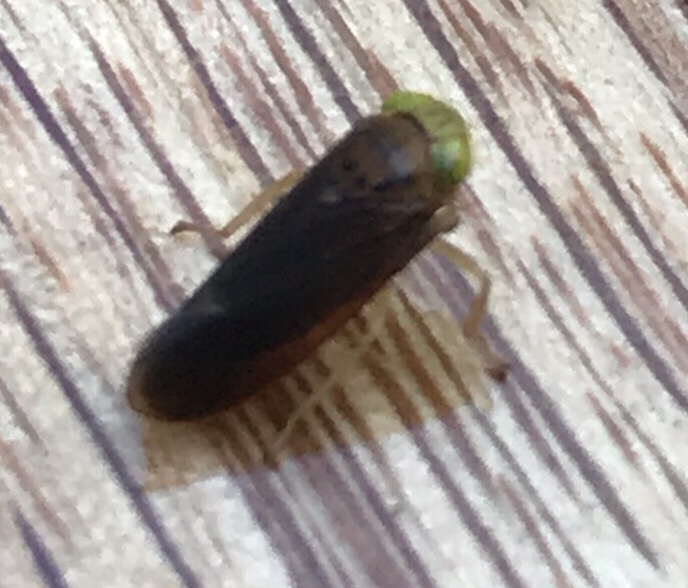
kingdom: Animalia
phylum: Arthropoda
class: Insecta
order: Hemiptera
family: Cicadellidae
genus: Jikradia
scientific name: Jikradia olitoria
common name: Coppery leafhopper
